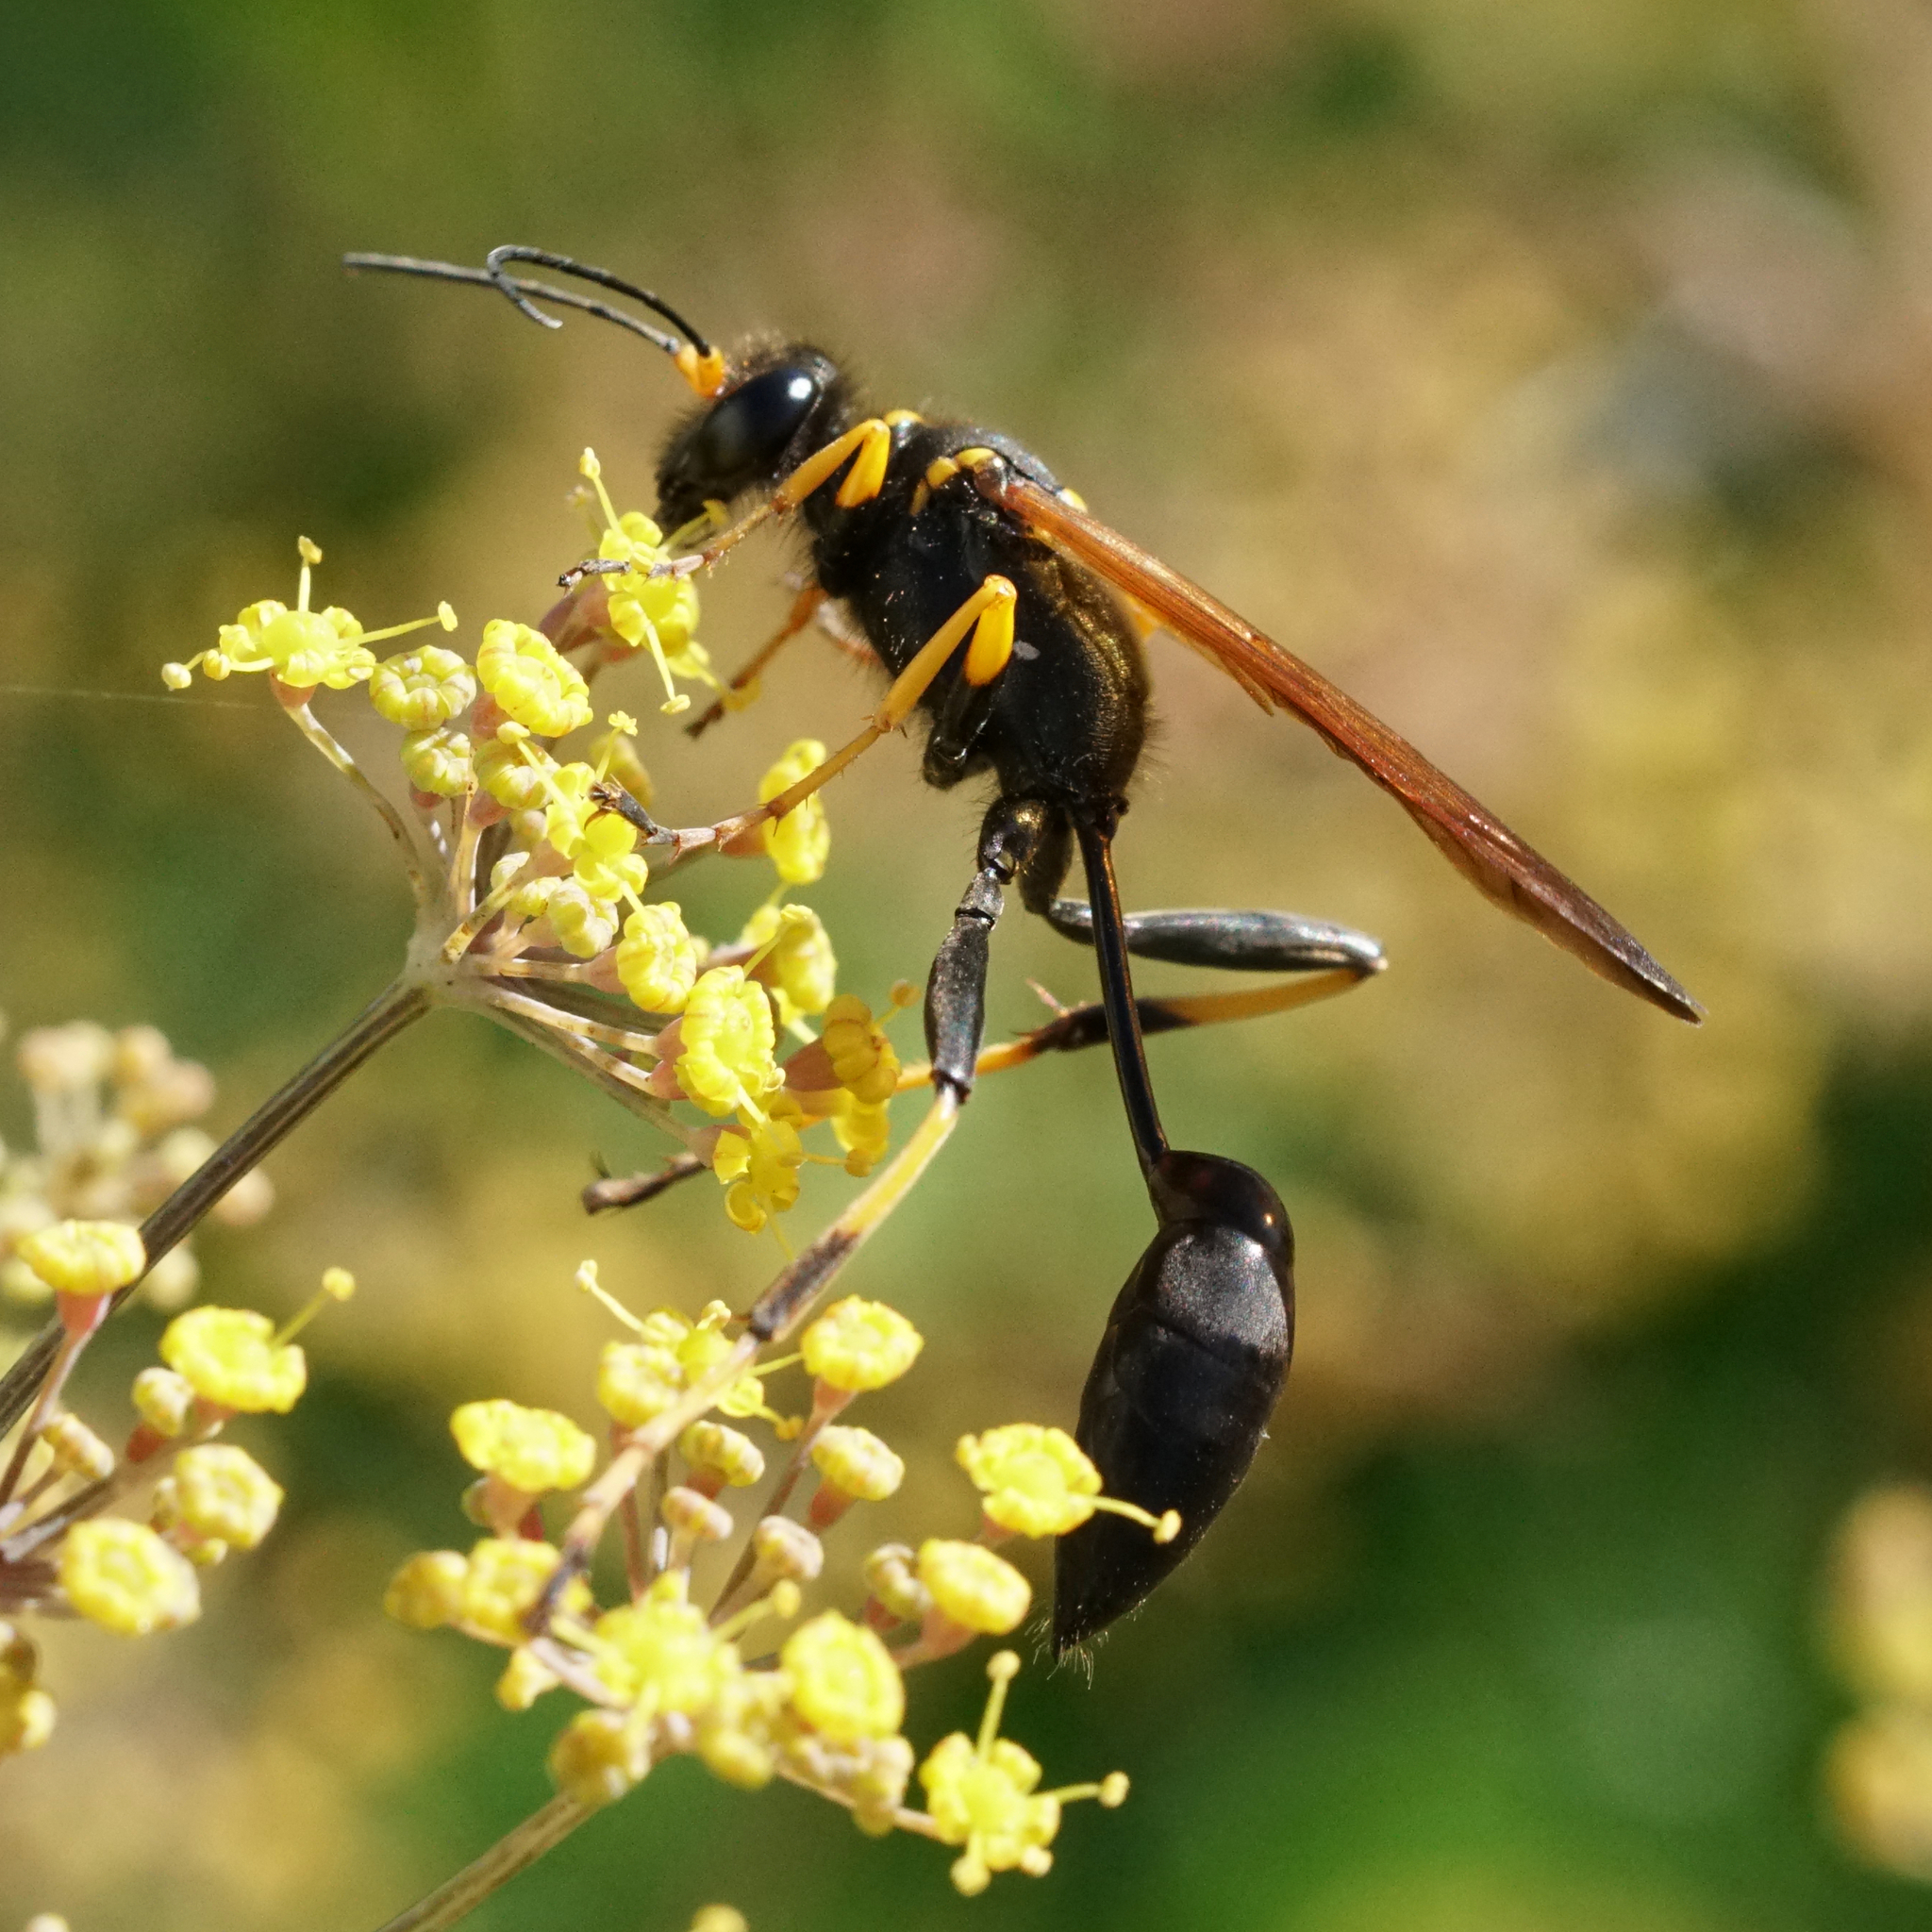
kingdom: Animalia
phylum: Arthropoda
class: Insecta
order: Hymenoptera
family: Sphecidae
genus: Sceliphron
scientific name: Sceliphron caementarium
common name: Mud dauber
